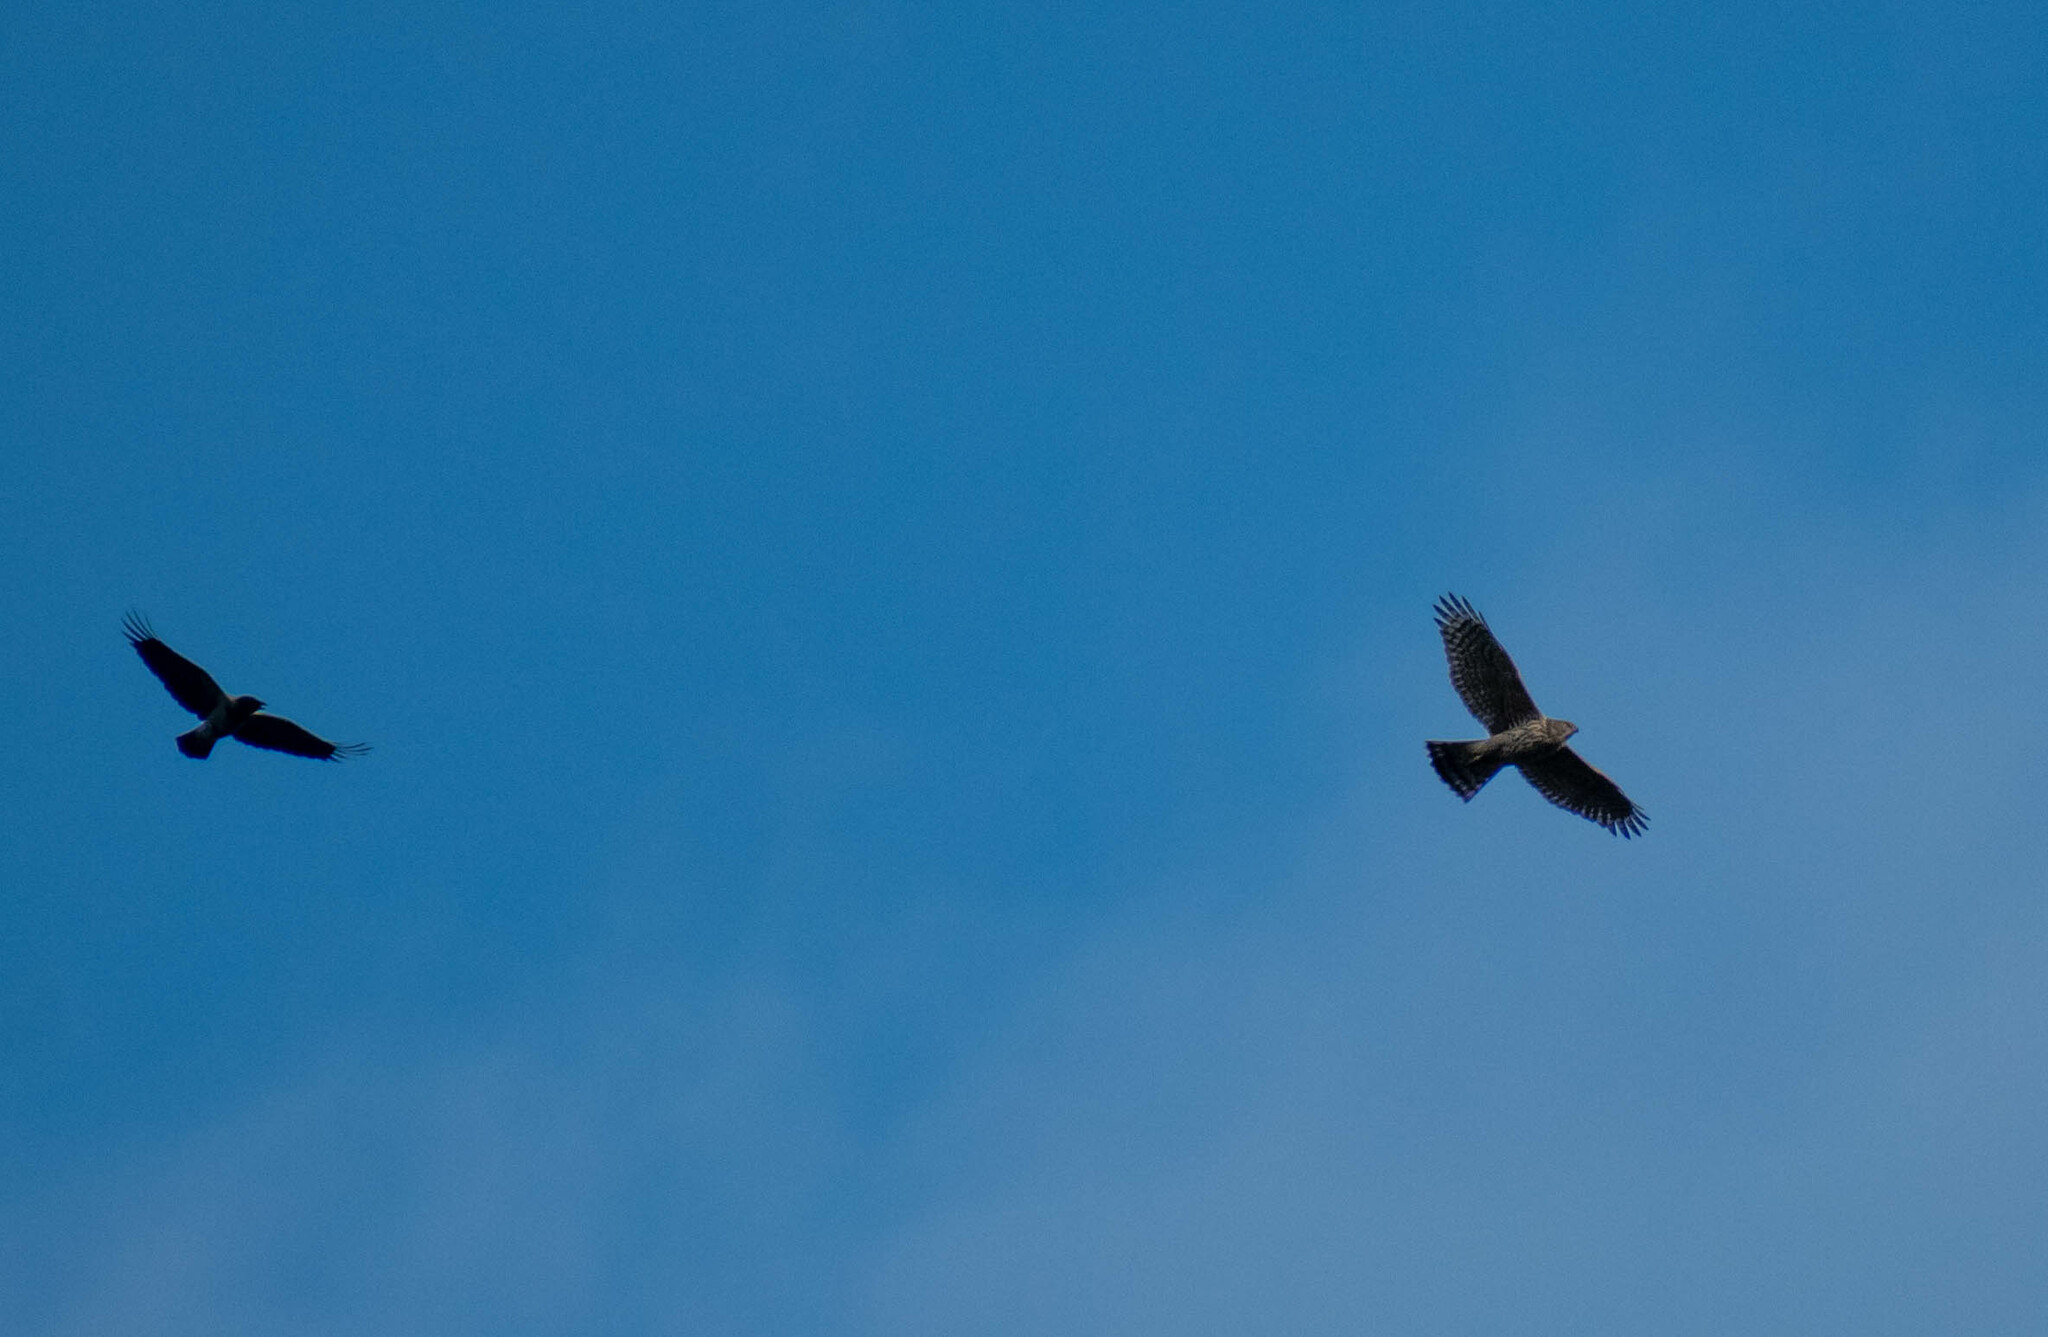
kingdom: Animalia
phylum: Chordata
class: Aves
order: Accipitriformes
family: Accipitridae
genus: Accipiter
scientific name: Accipiter gentilis
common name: Northern goshawk
